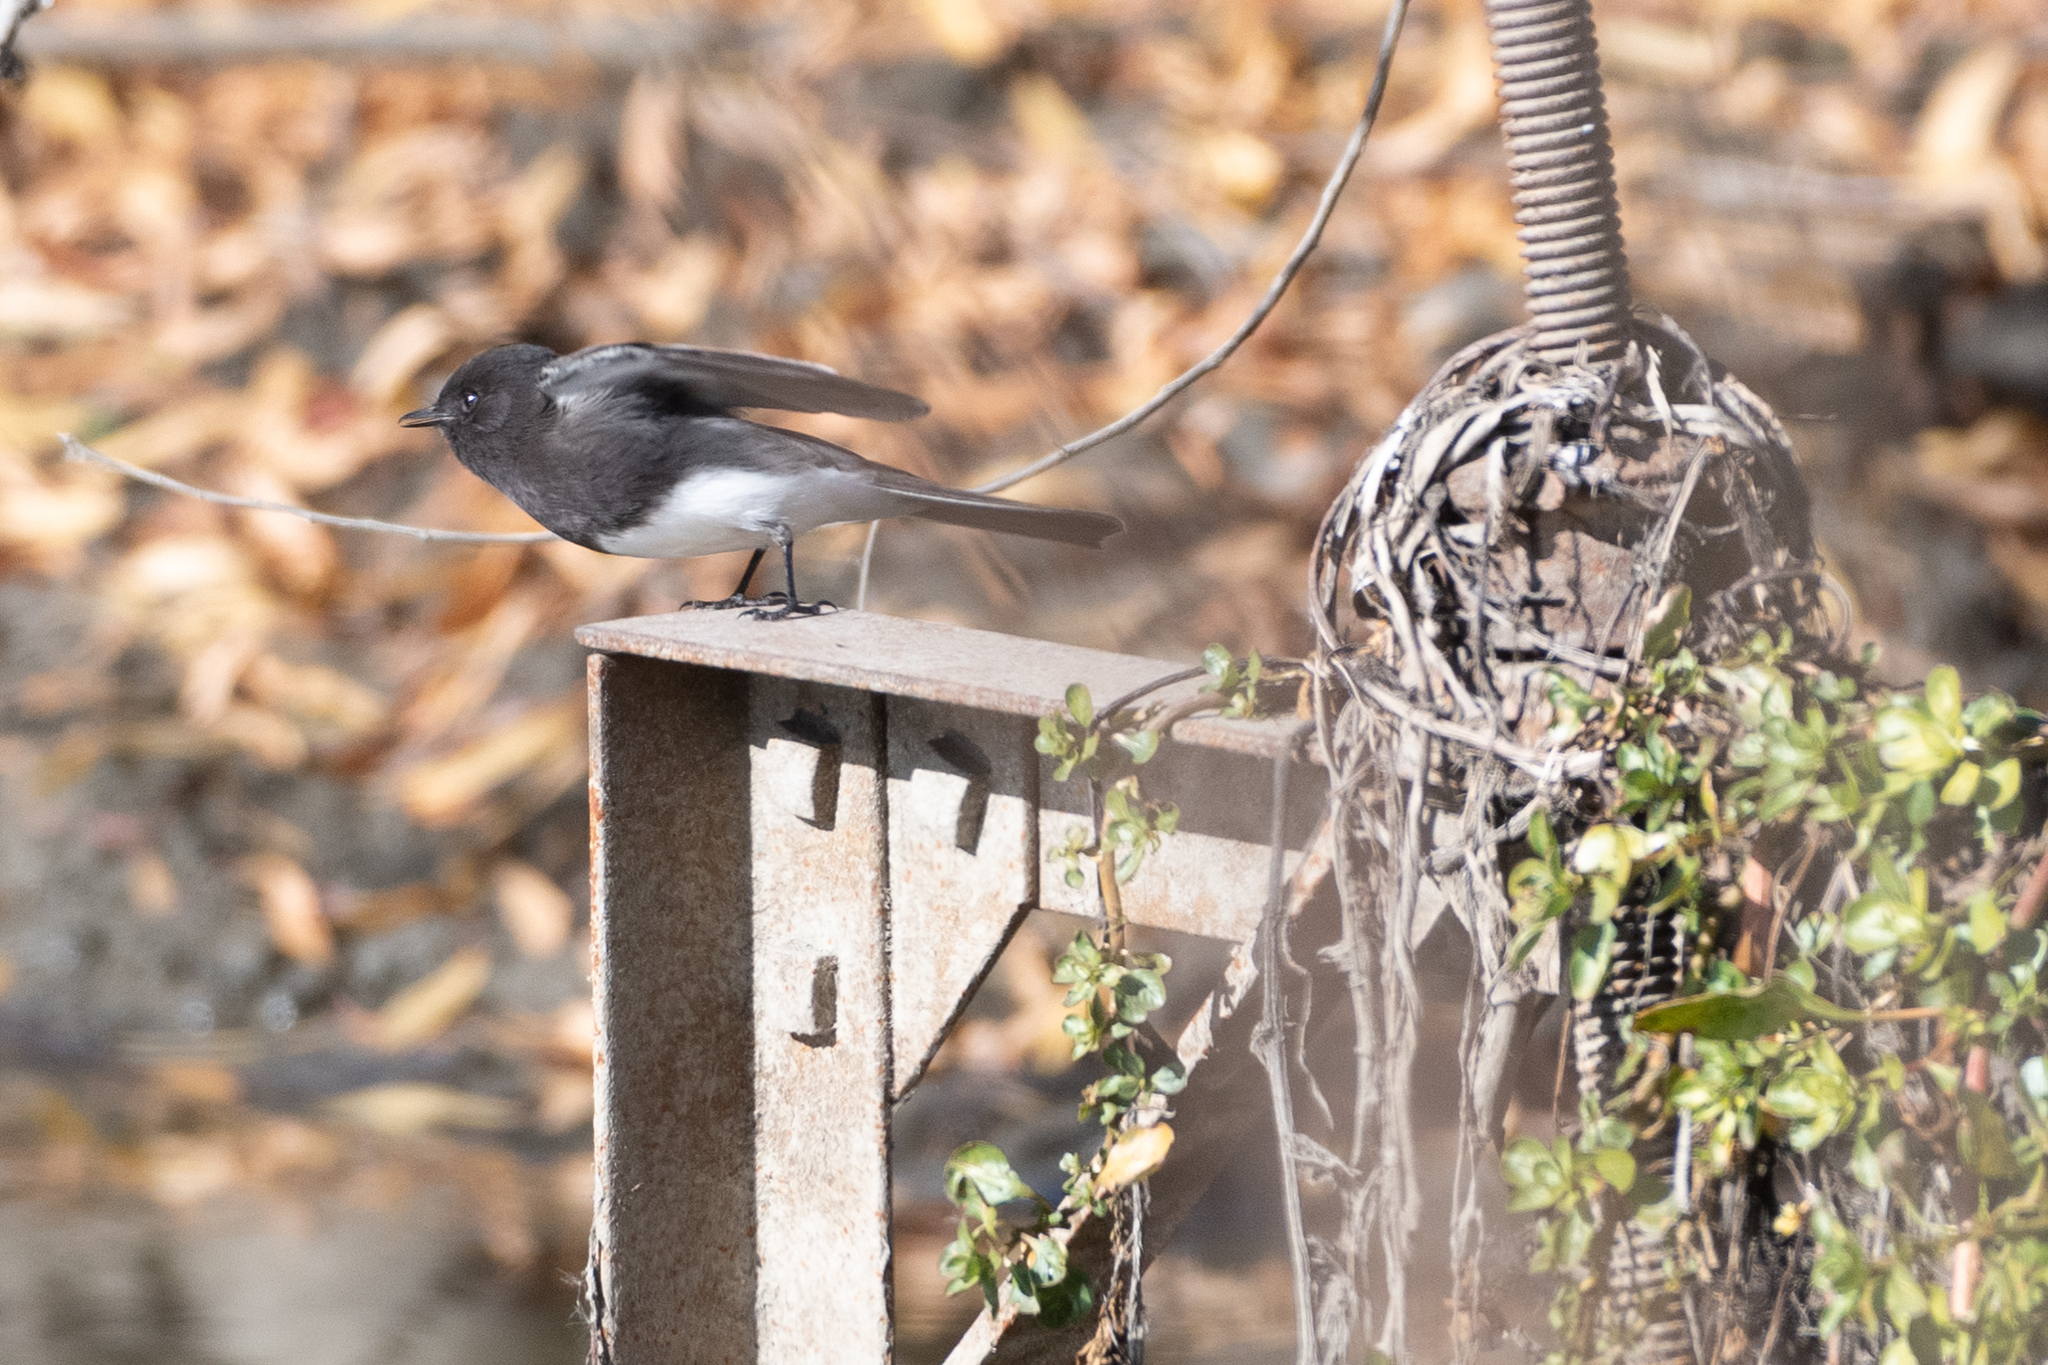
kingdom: Animalia
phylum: Chordata
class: Aves
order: Passeriformes
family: Tyrannidae
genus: Sayornis
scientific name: Sayornis nigricans
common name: Black phoebe
